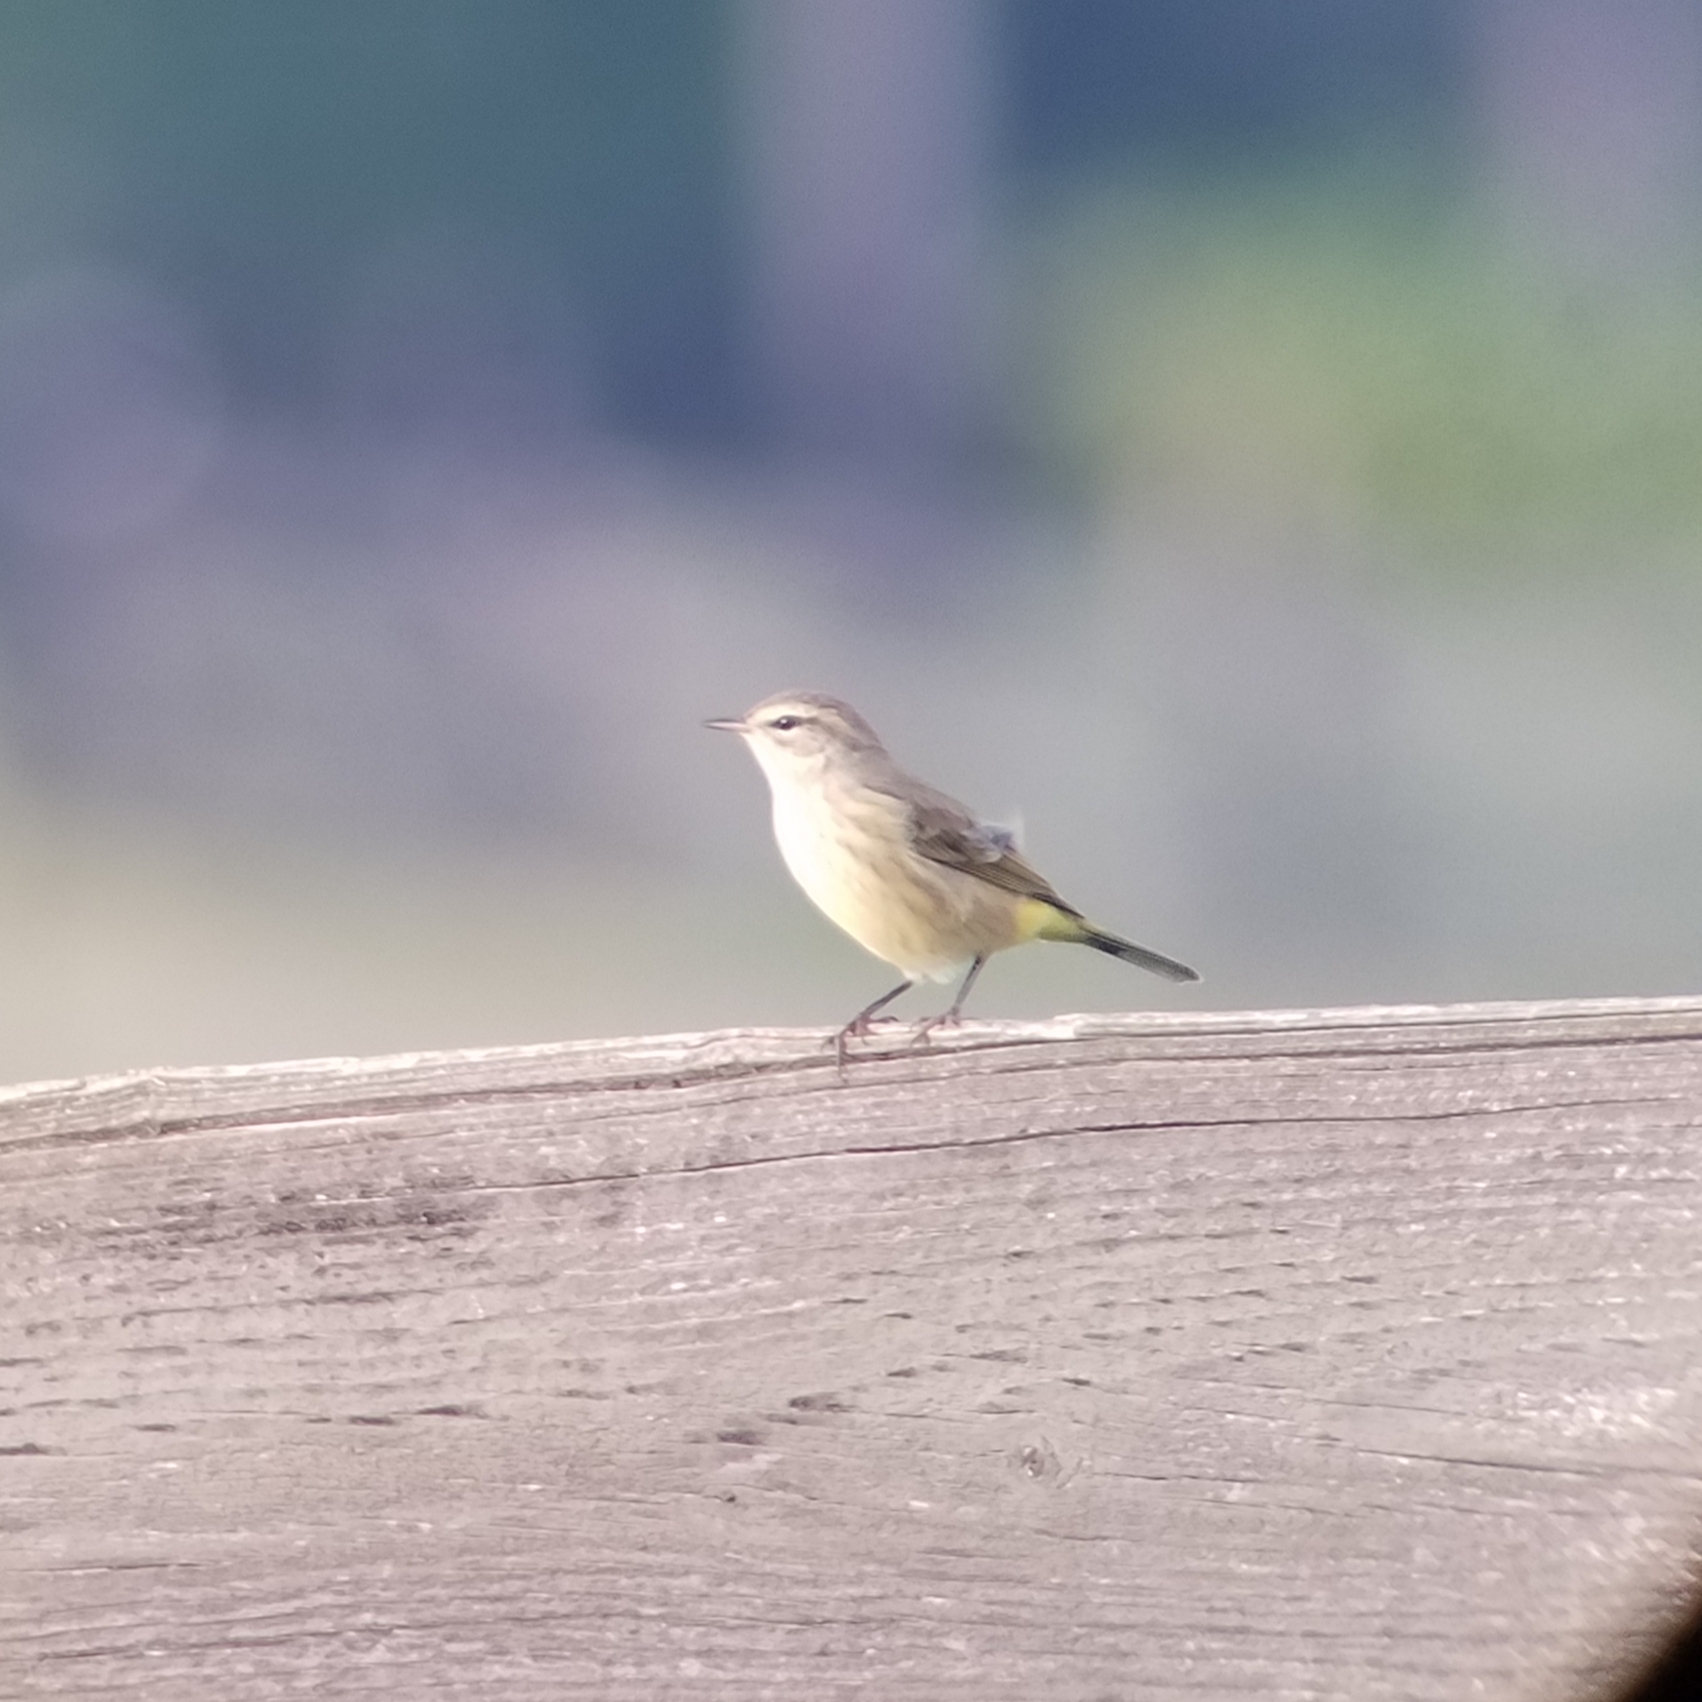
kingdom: Animalia
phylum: Chordata
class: Aves
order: Passeriformes
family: Parulidae
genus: Setophaga
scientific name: Setophaga palmarum
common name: Palm warbler
